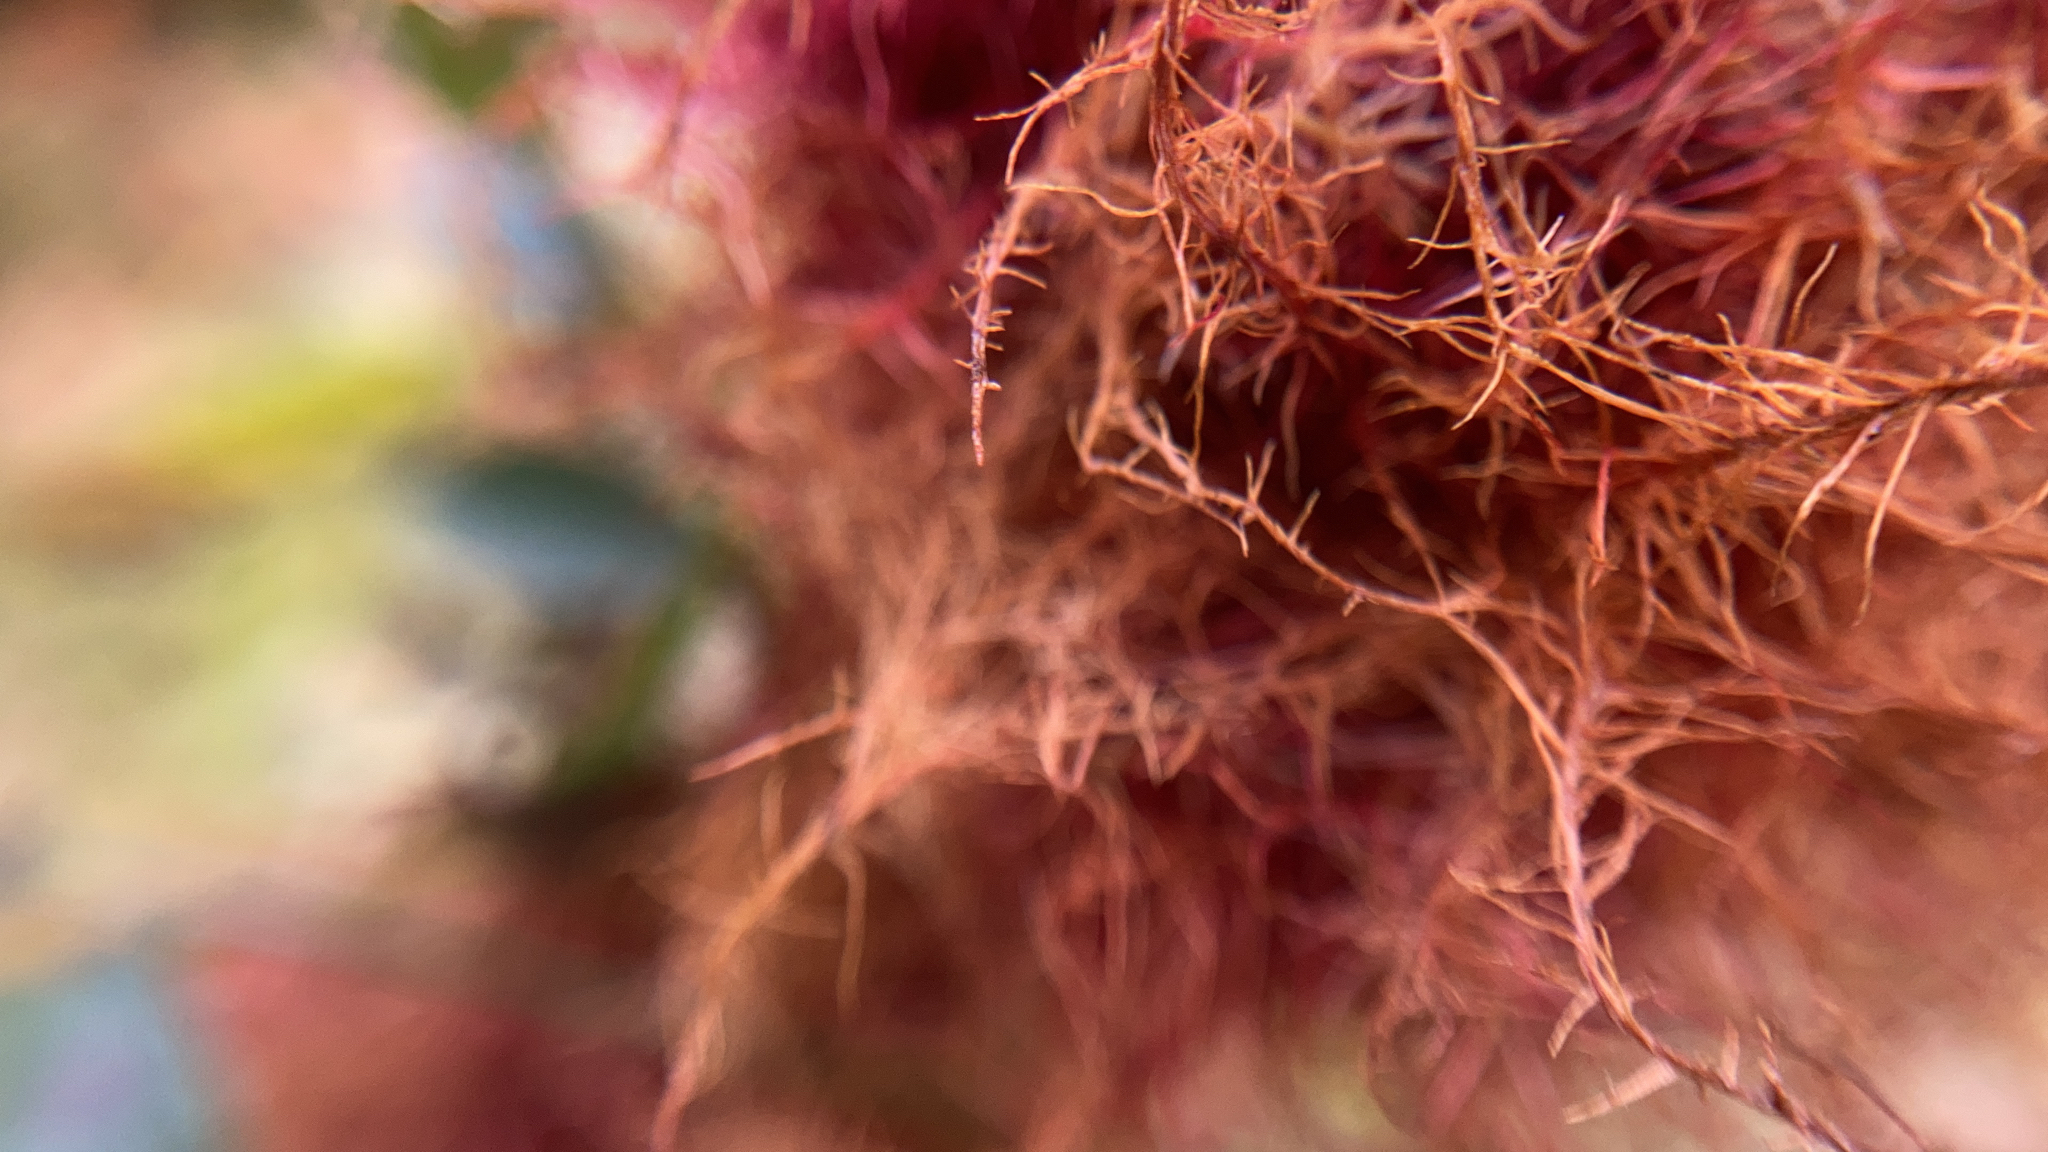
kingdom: Animalia
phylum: Arthropoda
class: Insecta
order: Hymenoptera
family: Cynipidae
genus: Diplolepis
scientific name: Diplolepis rosae
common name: Bedeguar gall
